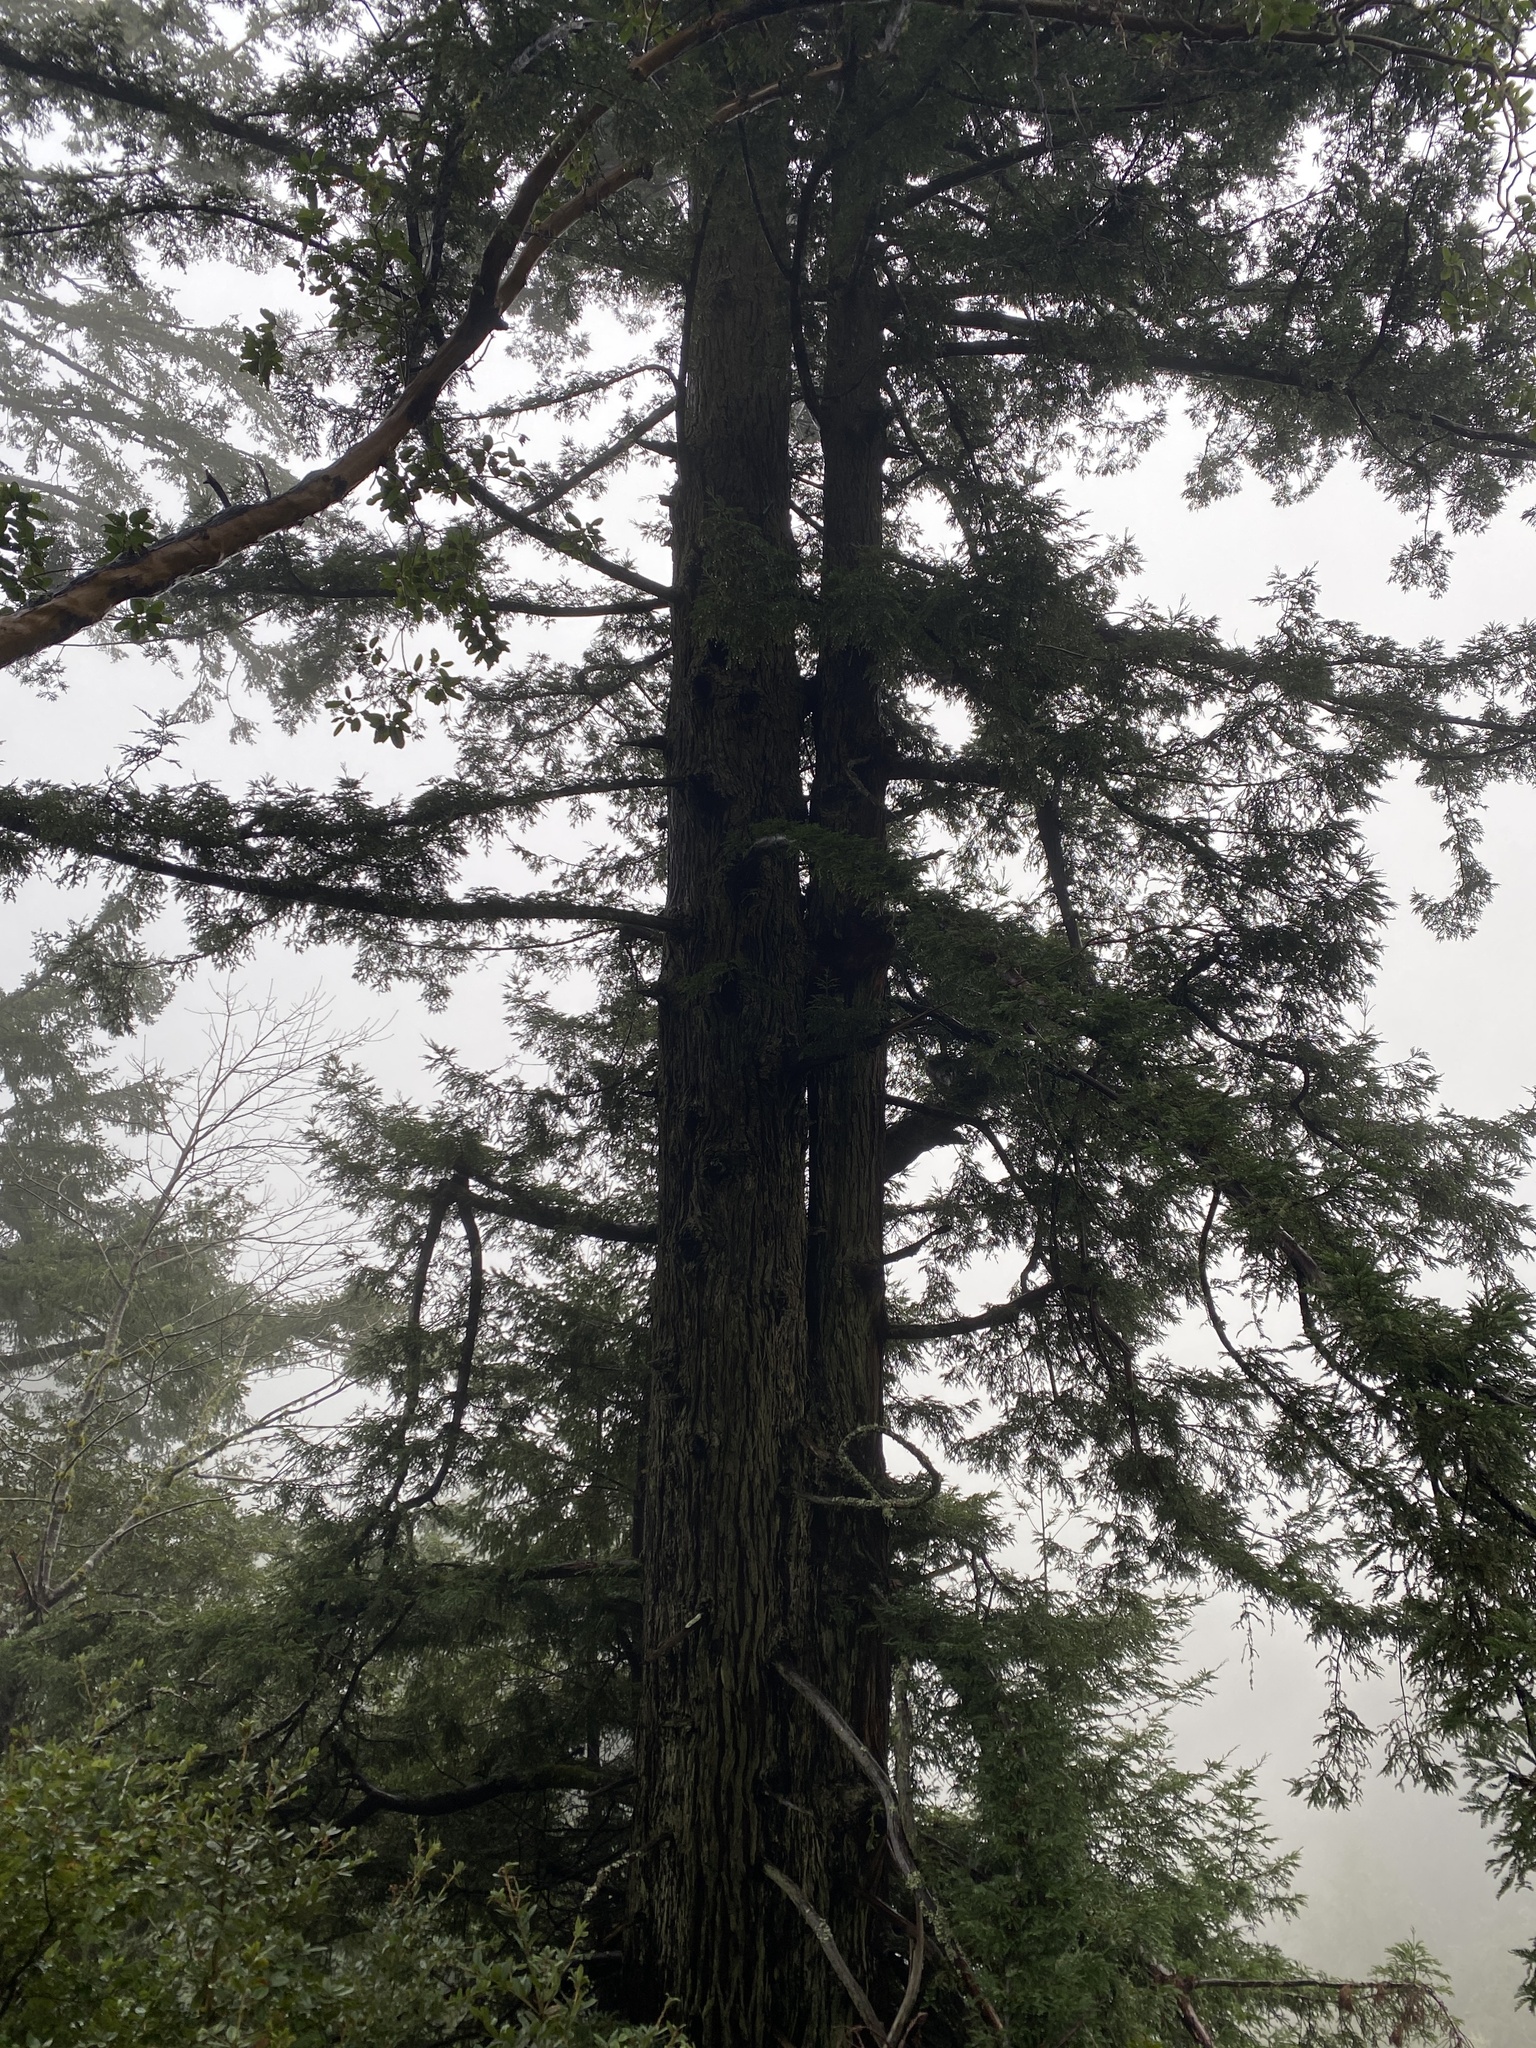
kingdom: Plantae
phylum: Tracheophyta
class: Pinopsida
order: Pinales
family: Cupressaceae
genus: Sequoia
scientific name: Sequoia sempervirens
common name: Coast redwood
